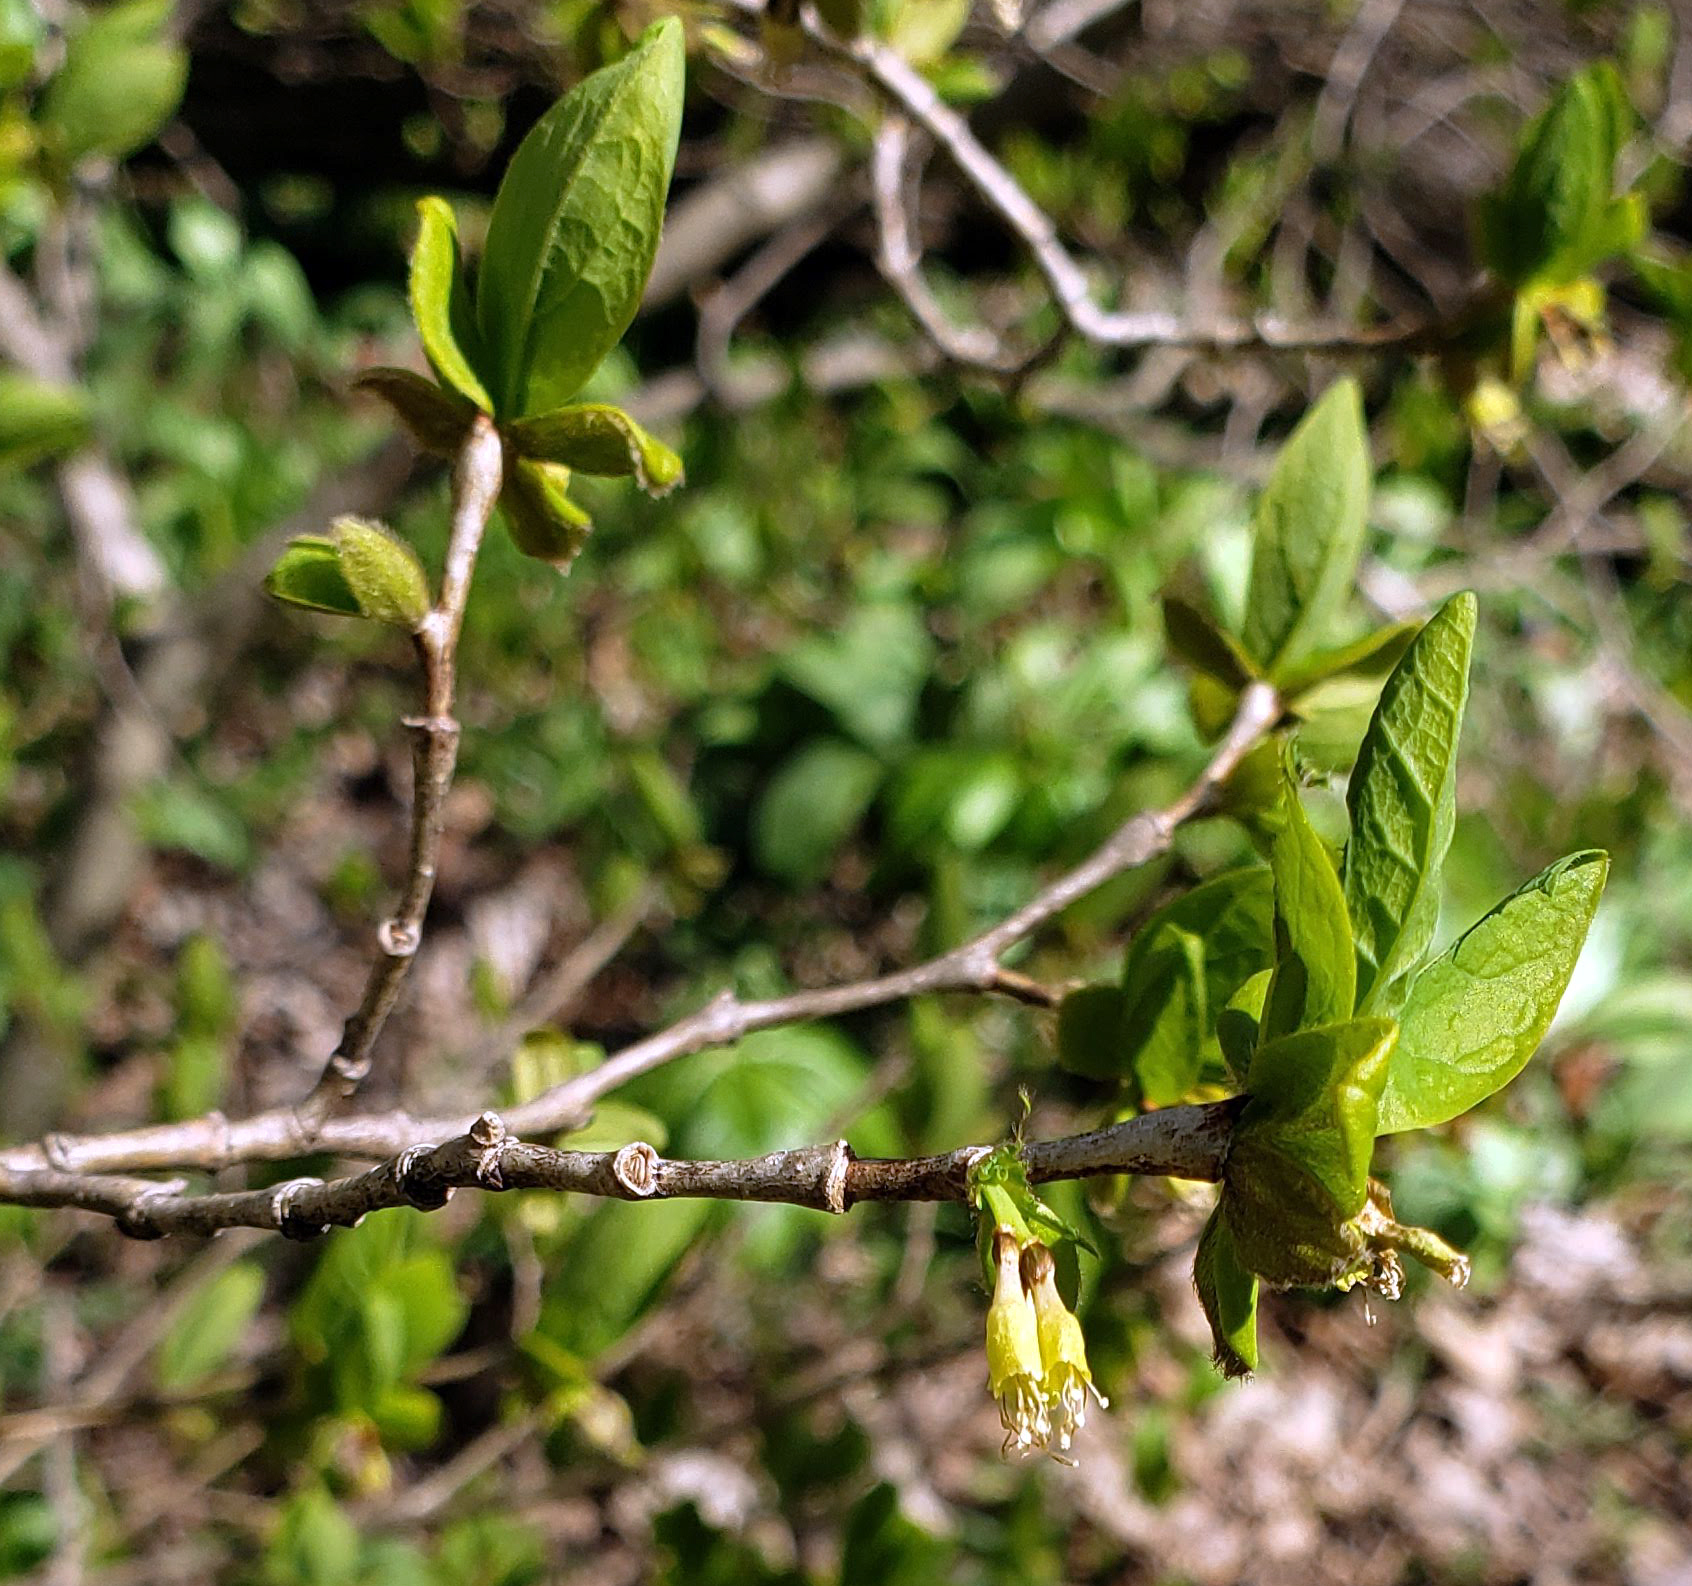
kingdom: Plantae
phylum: Tracheophyta
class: Magnoliopsida
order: Malvales
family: Thymelaeaceae
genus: Dirca
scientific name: Dirca palustris
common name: Leatherwood
